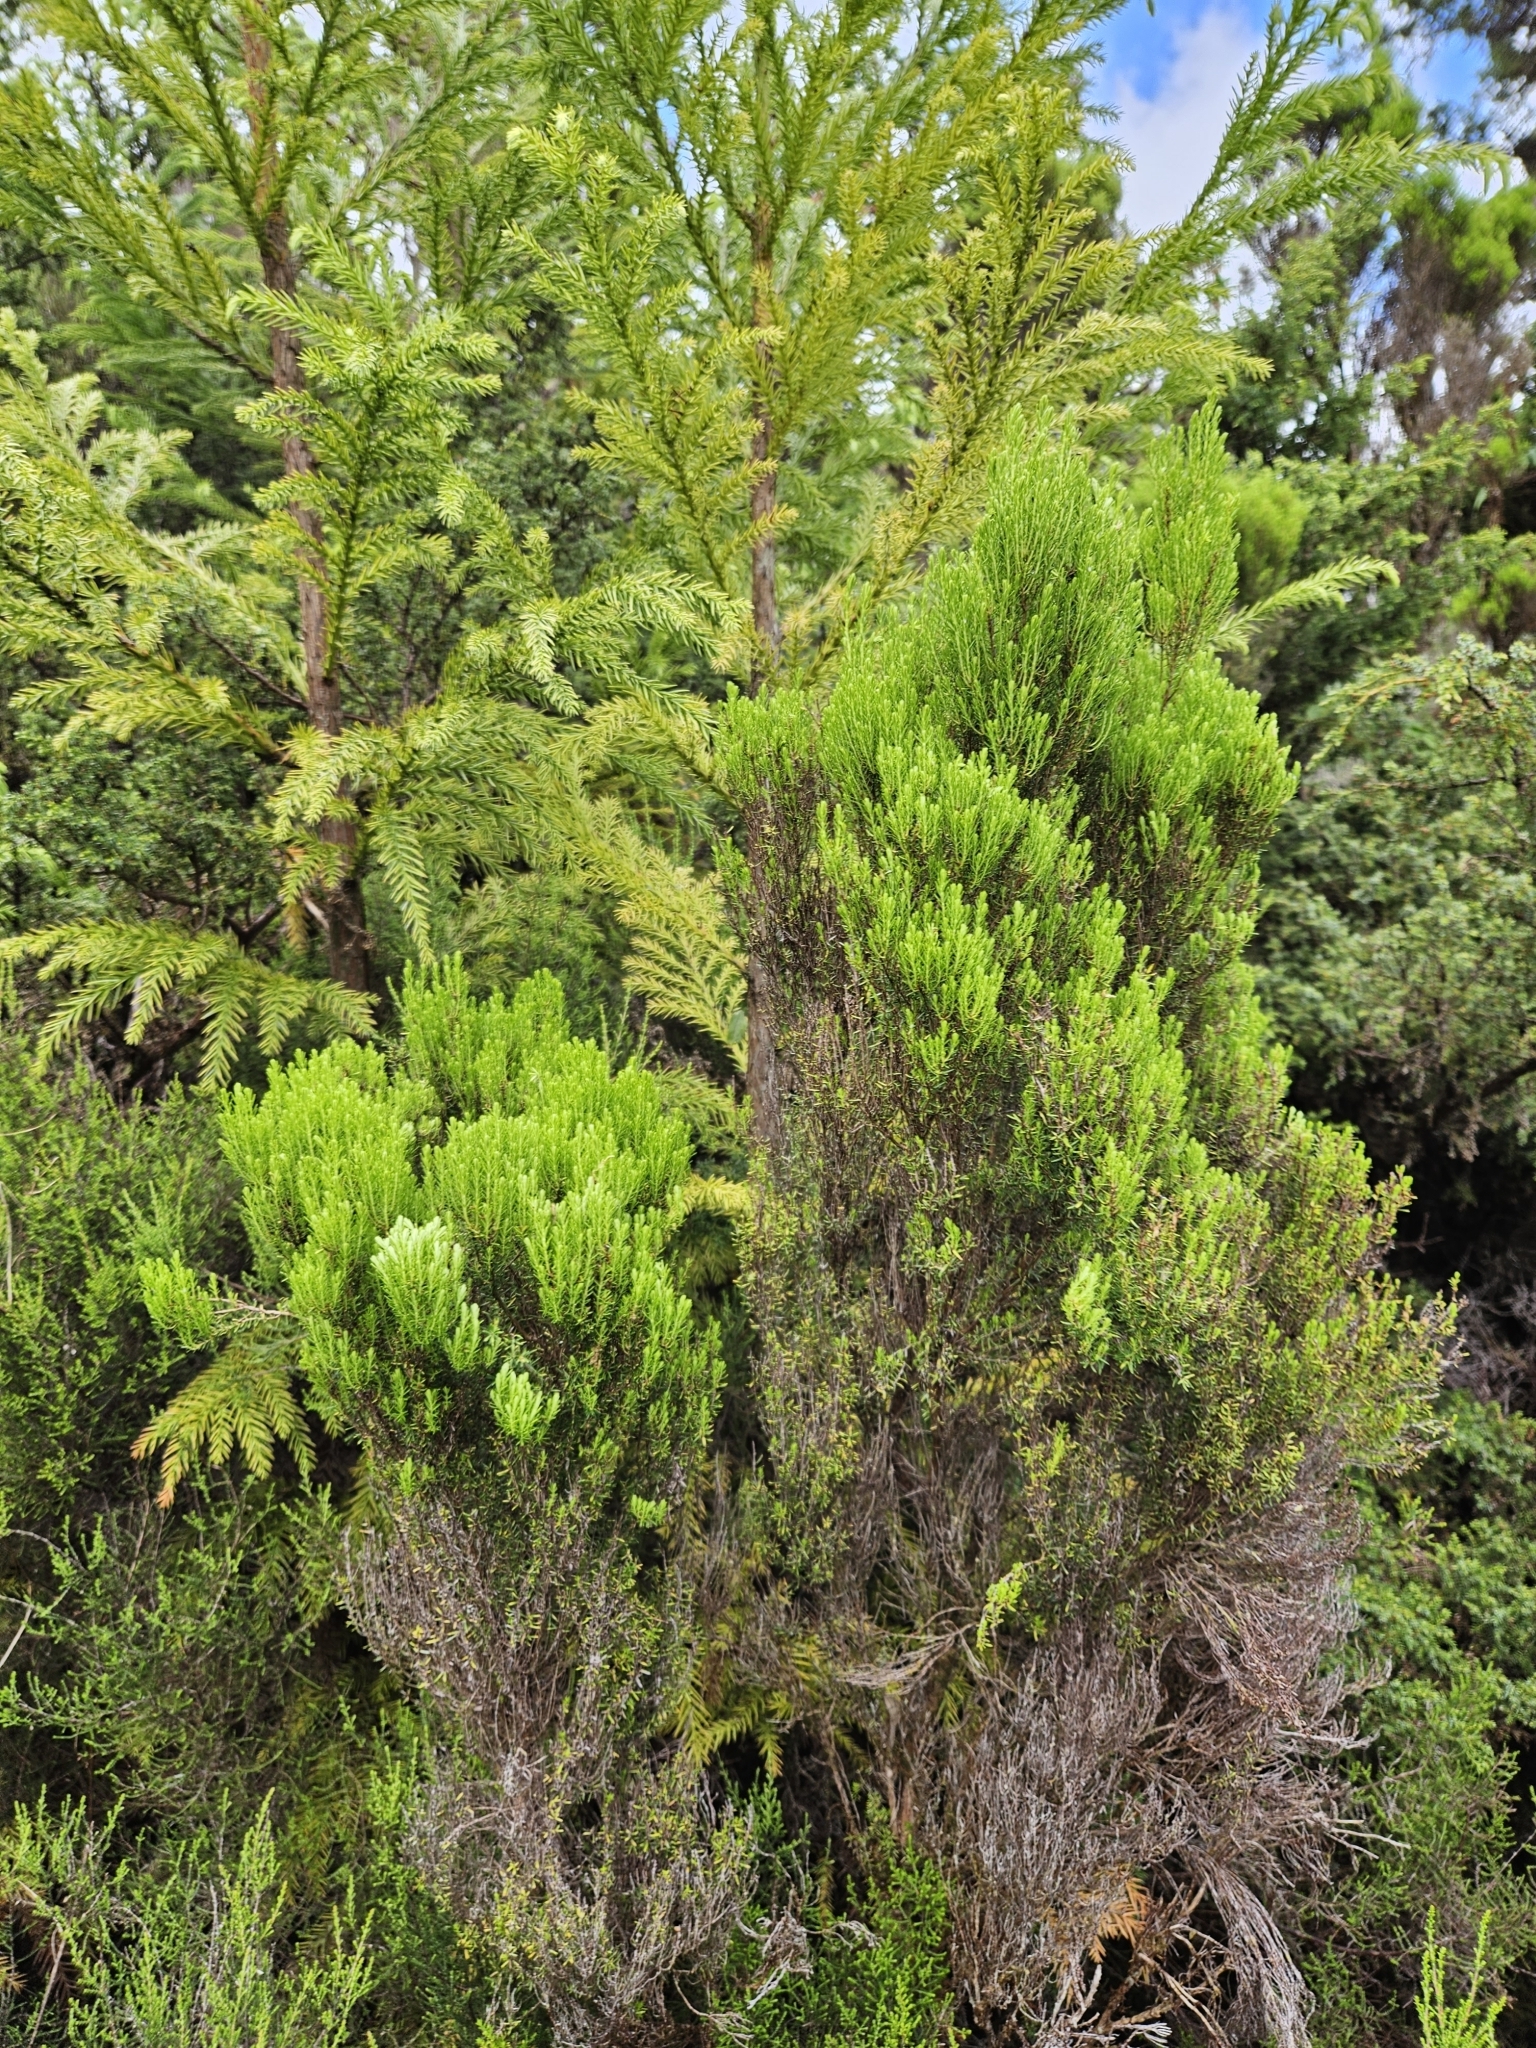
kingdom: Plantae
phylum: Tracheophyta
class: Magnoliopsida
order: Ericales
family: Ericaceae
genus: Erica
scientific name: Erica azorica
